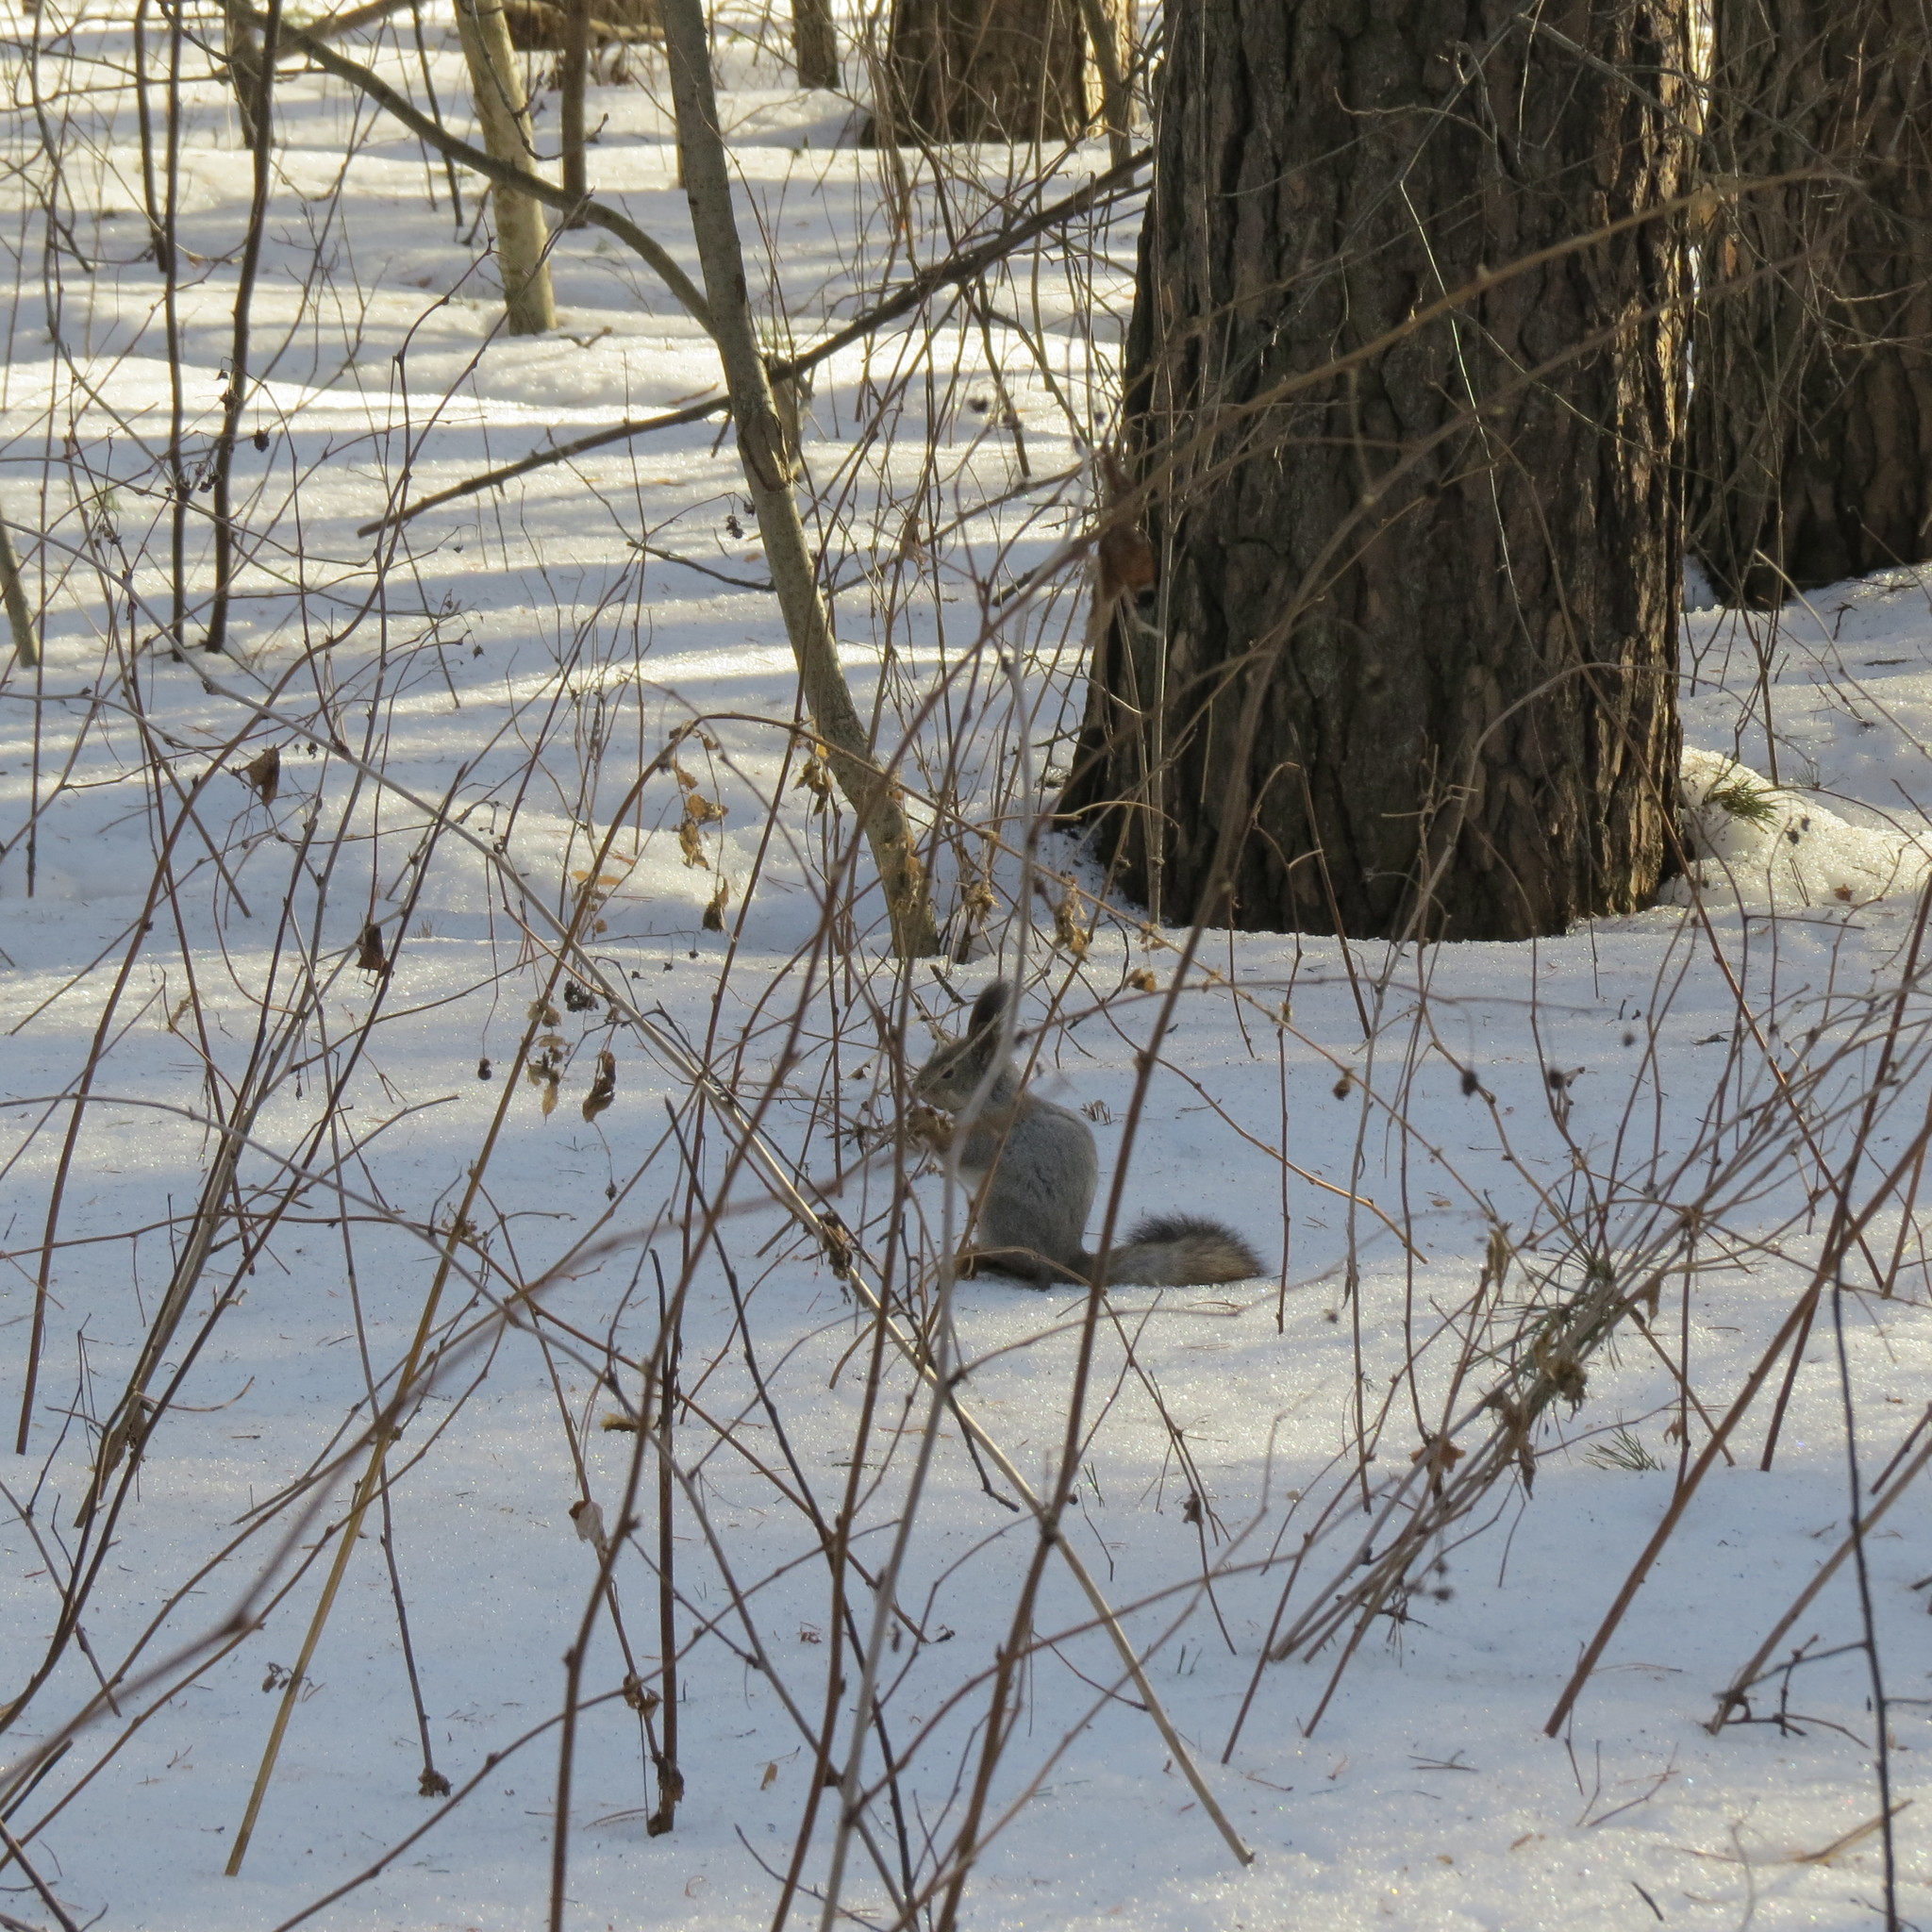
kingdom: Animalia
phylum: Chordata
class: Mammalia
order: Rodentia
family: Sciuridae
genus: Sciurus
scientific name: Sciurus vulgaris
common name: Eurasian red squirrel
